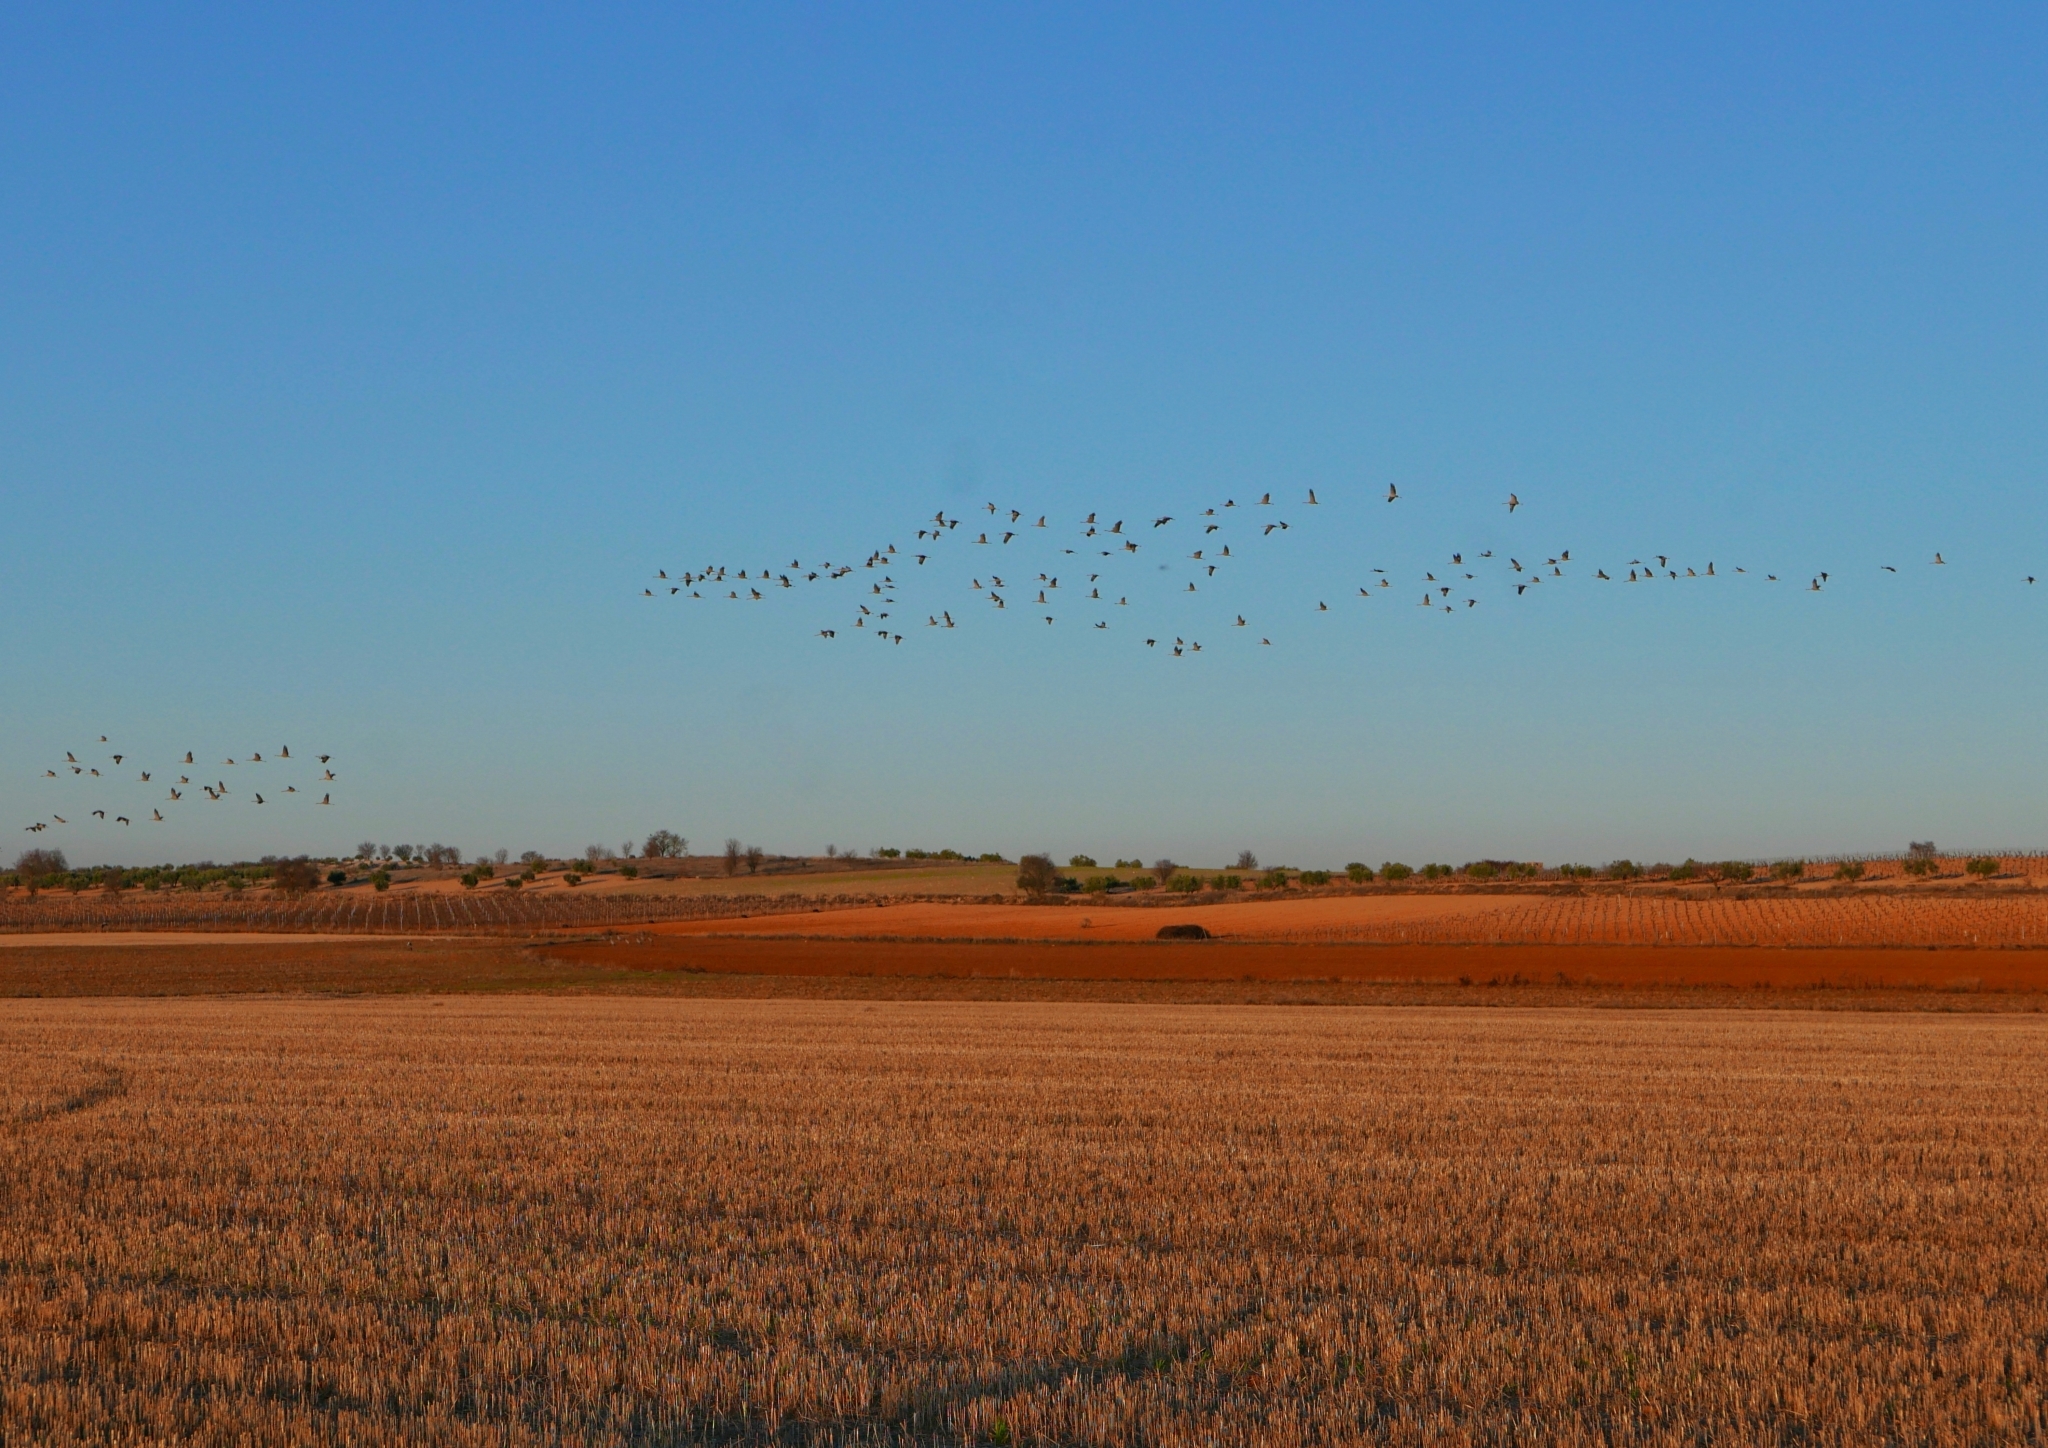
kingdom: Animalia
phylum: Chordata
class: Aves
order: Gruiformes
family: Gruidae
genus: Grus
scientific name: Grus grus
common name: Common crane
